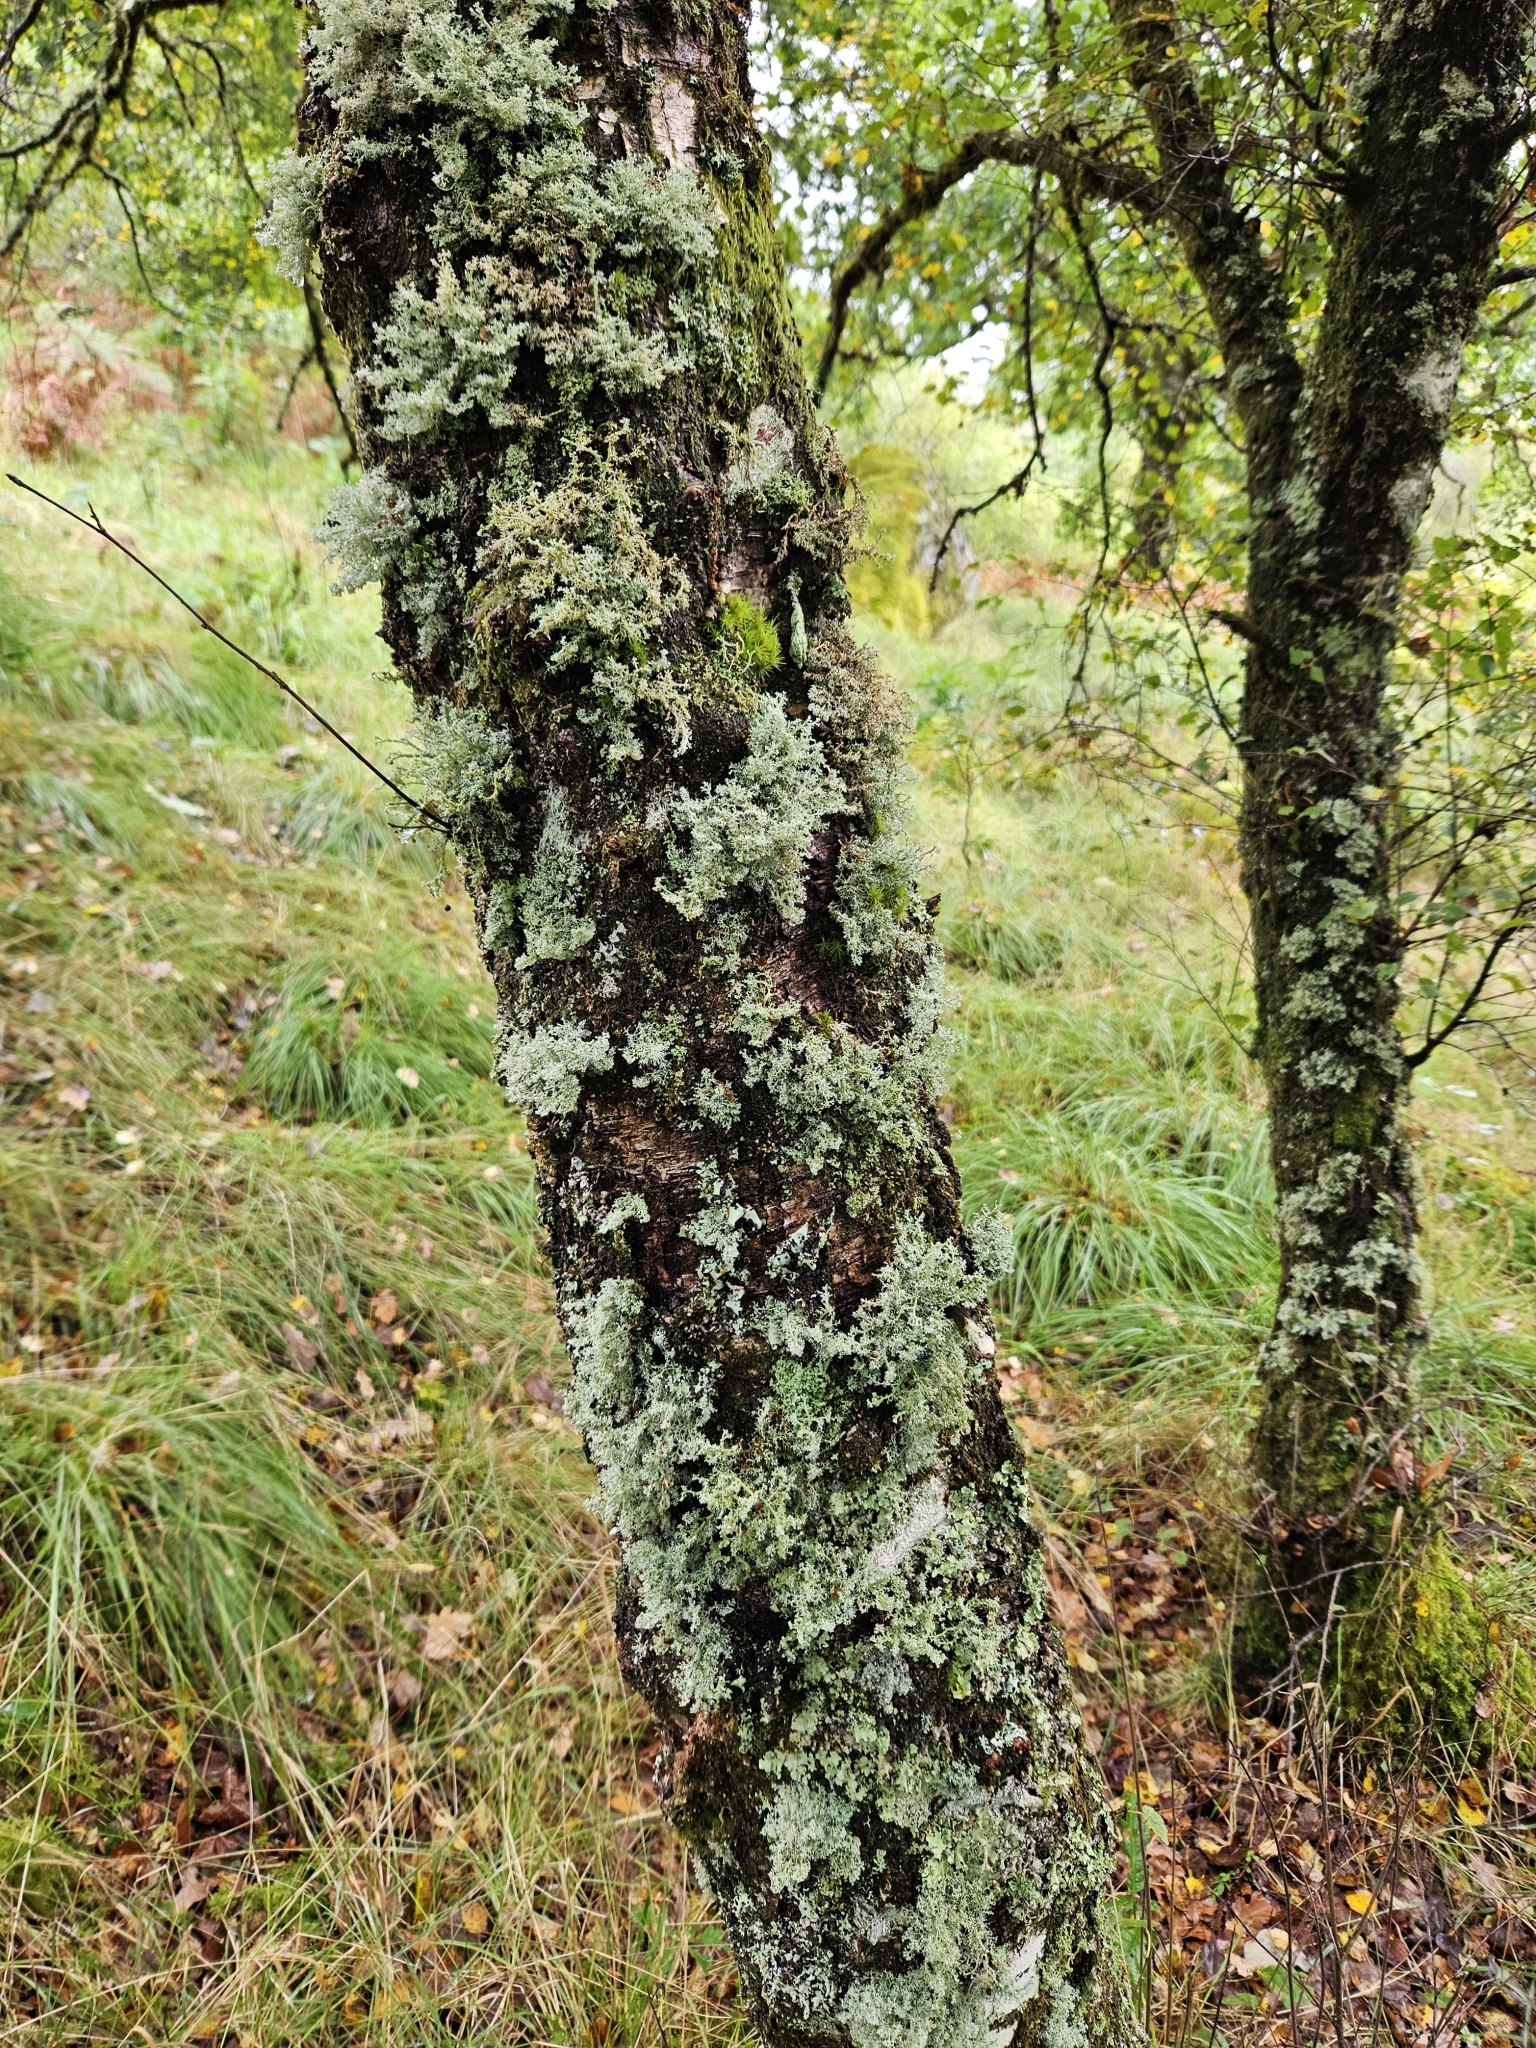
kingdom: Fungi
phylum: Ascomycota
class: Lecanoromycetes
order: Lecanorales
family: Sphaerophoraceae
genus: Sphaerophorus
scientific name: Sphaerophorus globosus
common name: Globe ball lichen
